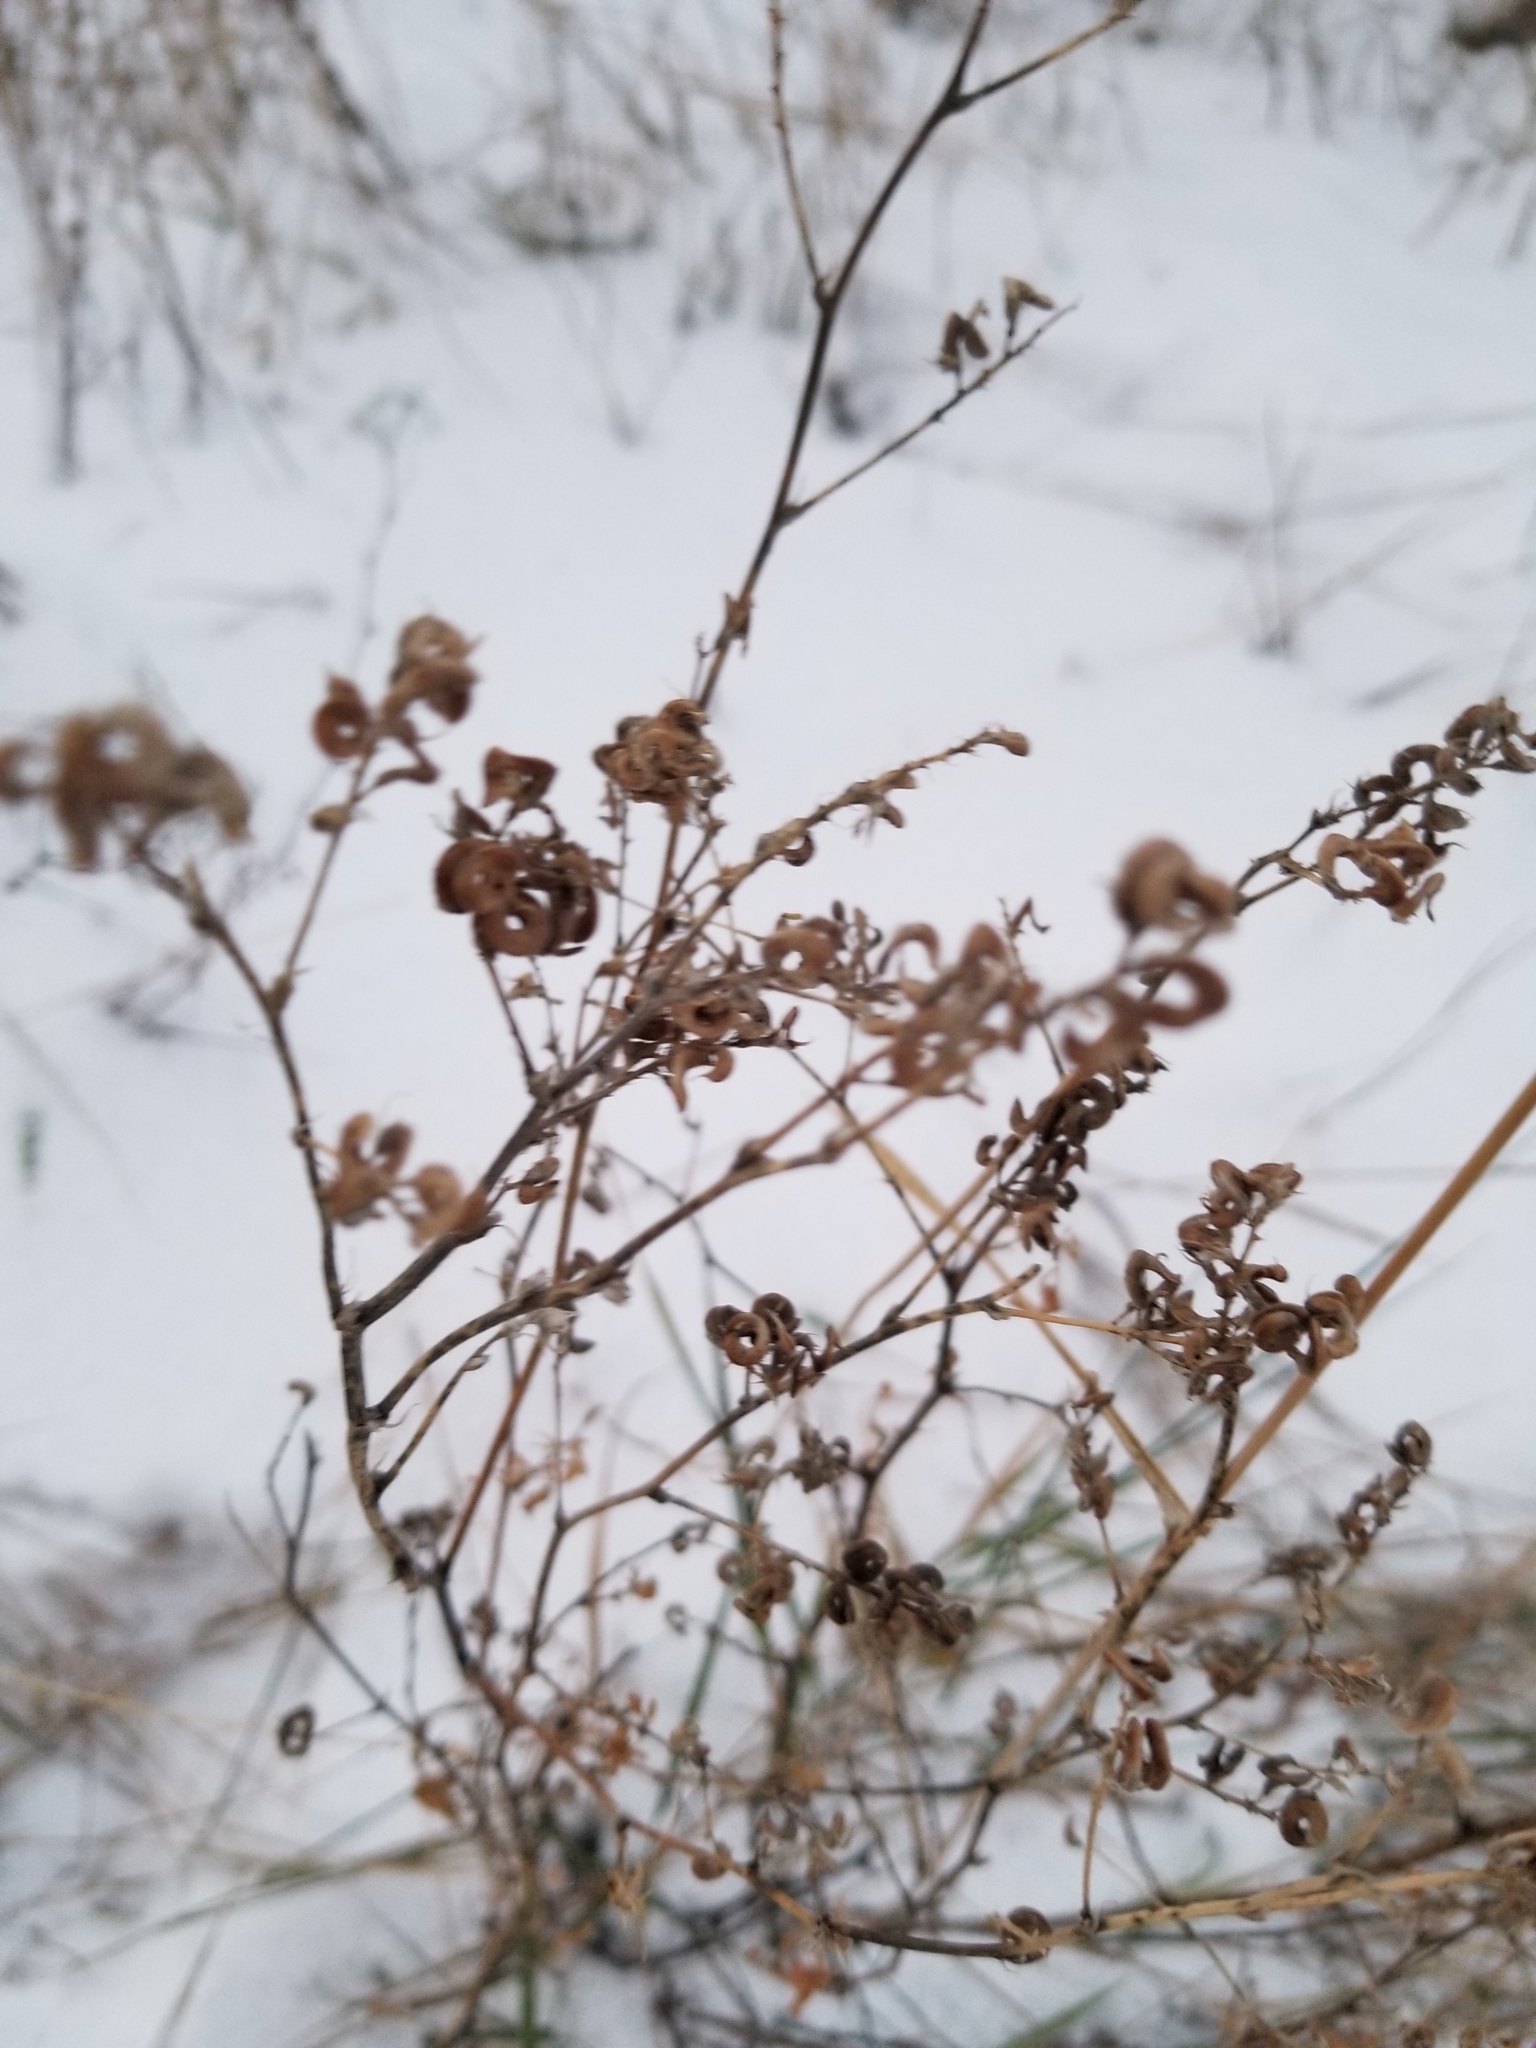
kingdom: Plantae
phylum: Tracheophyta
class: Magnoliopsida
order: Fabales
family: Fabaceae
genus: Medicago
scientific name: Medicago sativa
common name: Alfalfa
